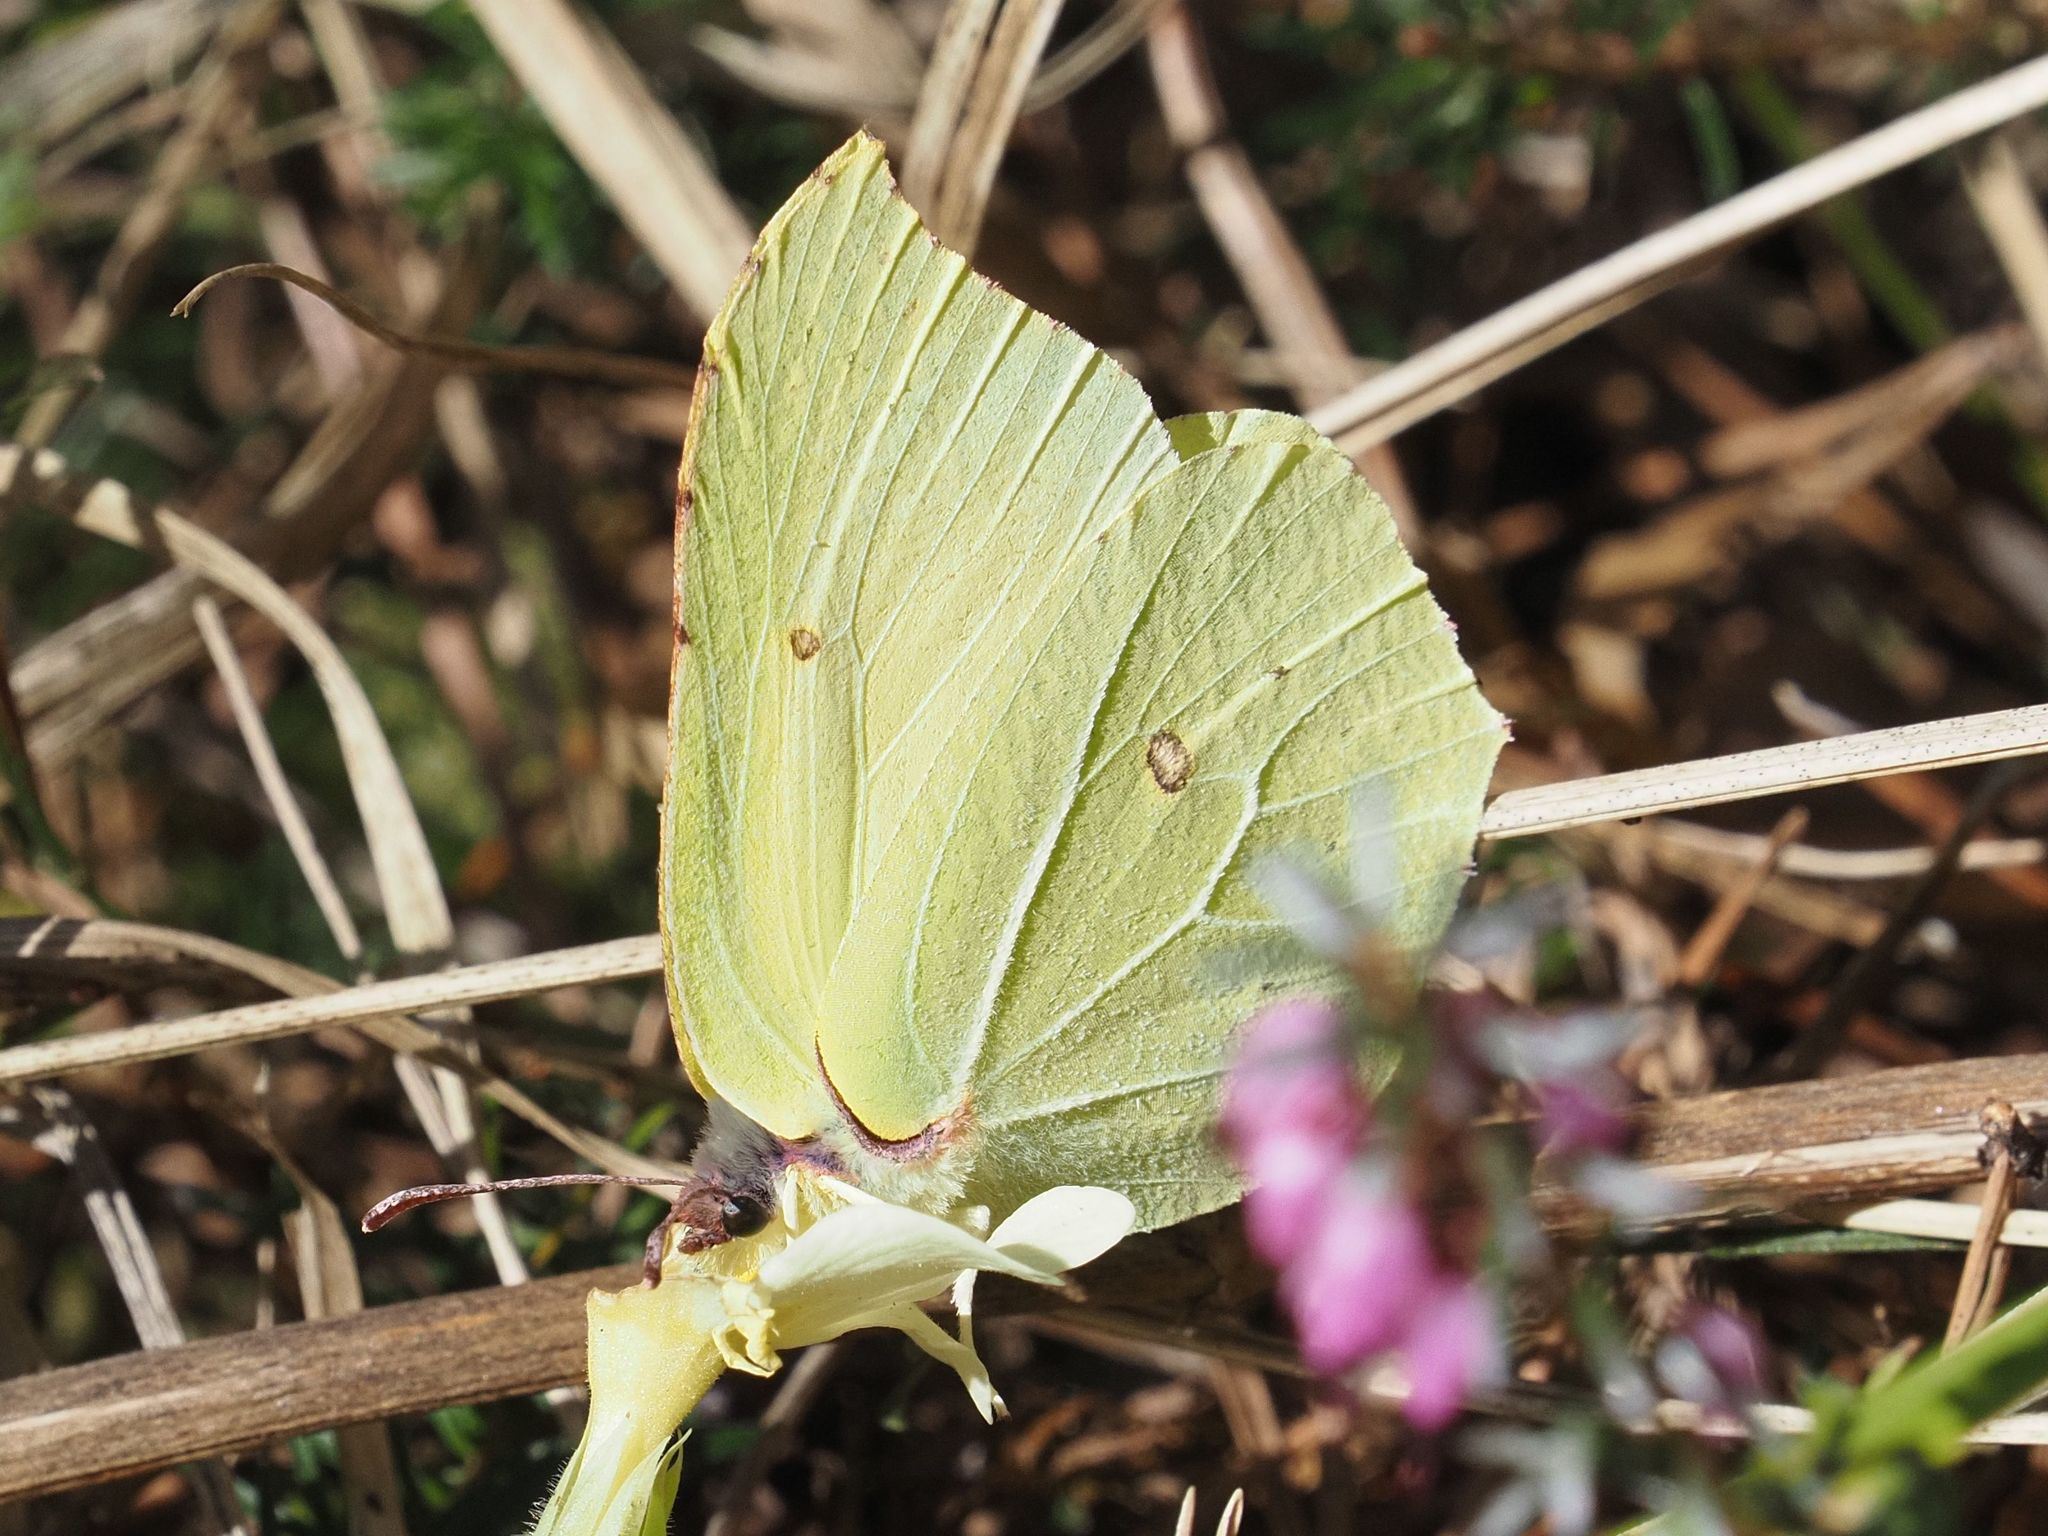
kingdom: Animalia
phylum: Arthropoda
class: Insecta
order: Lepidoptera
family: Pieridae
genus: Gonepteryx
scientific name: Gonepteryx rhamni
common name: Brimstone
